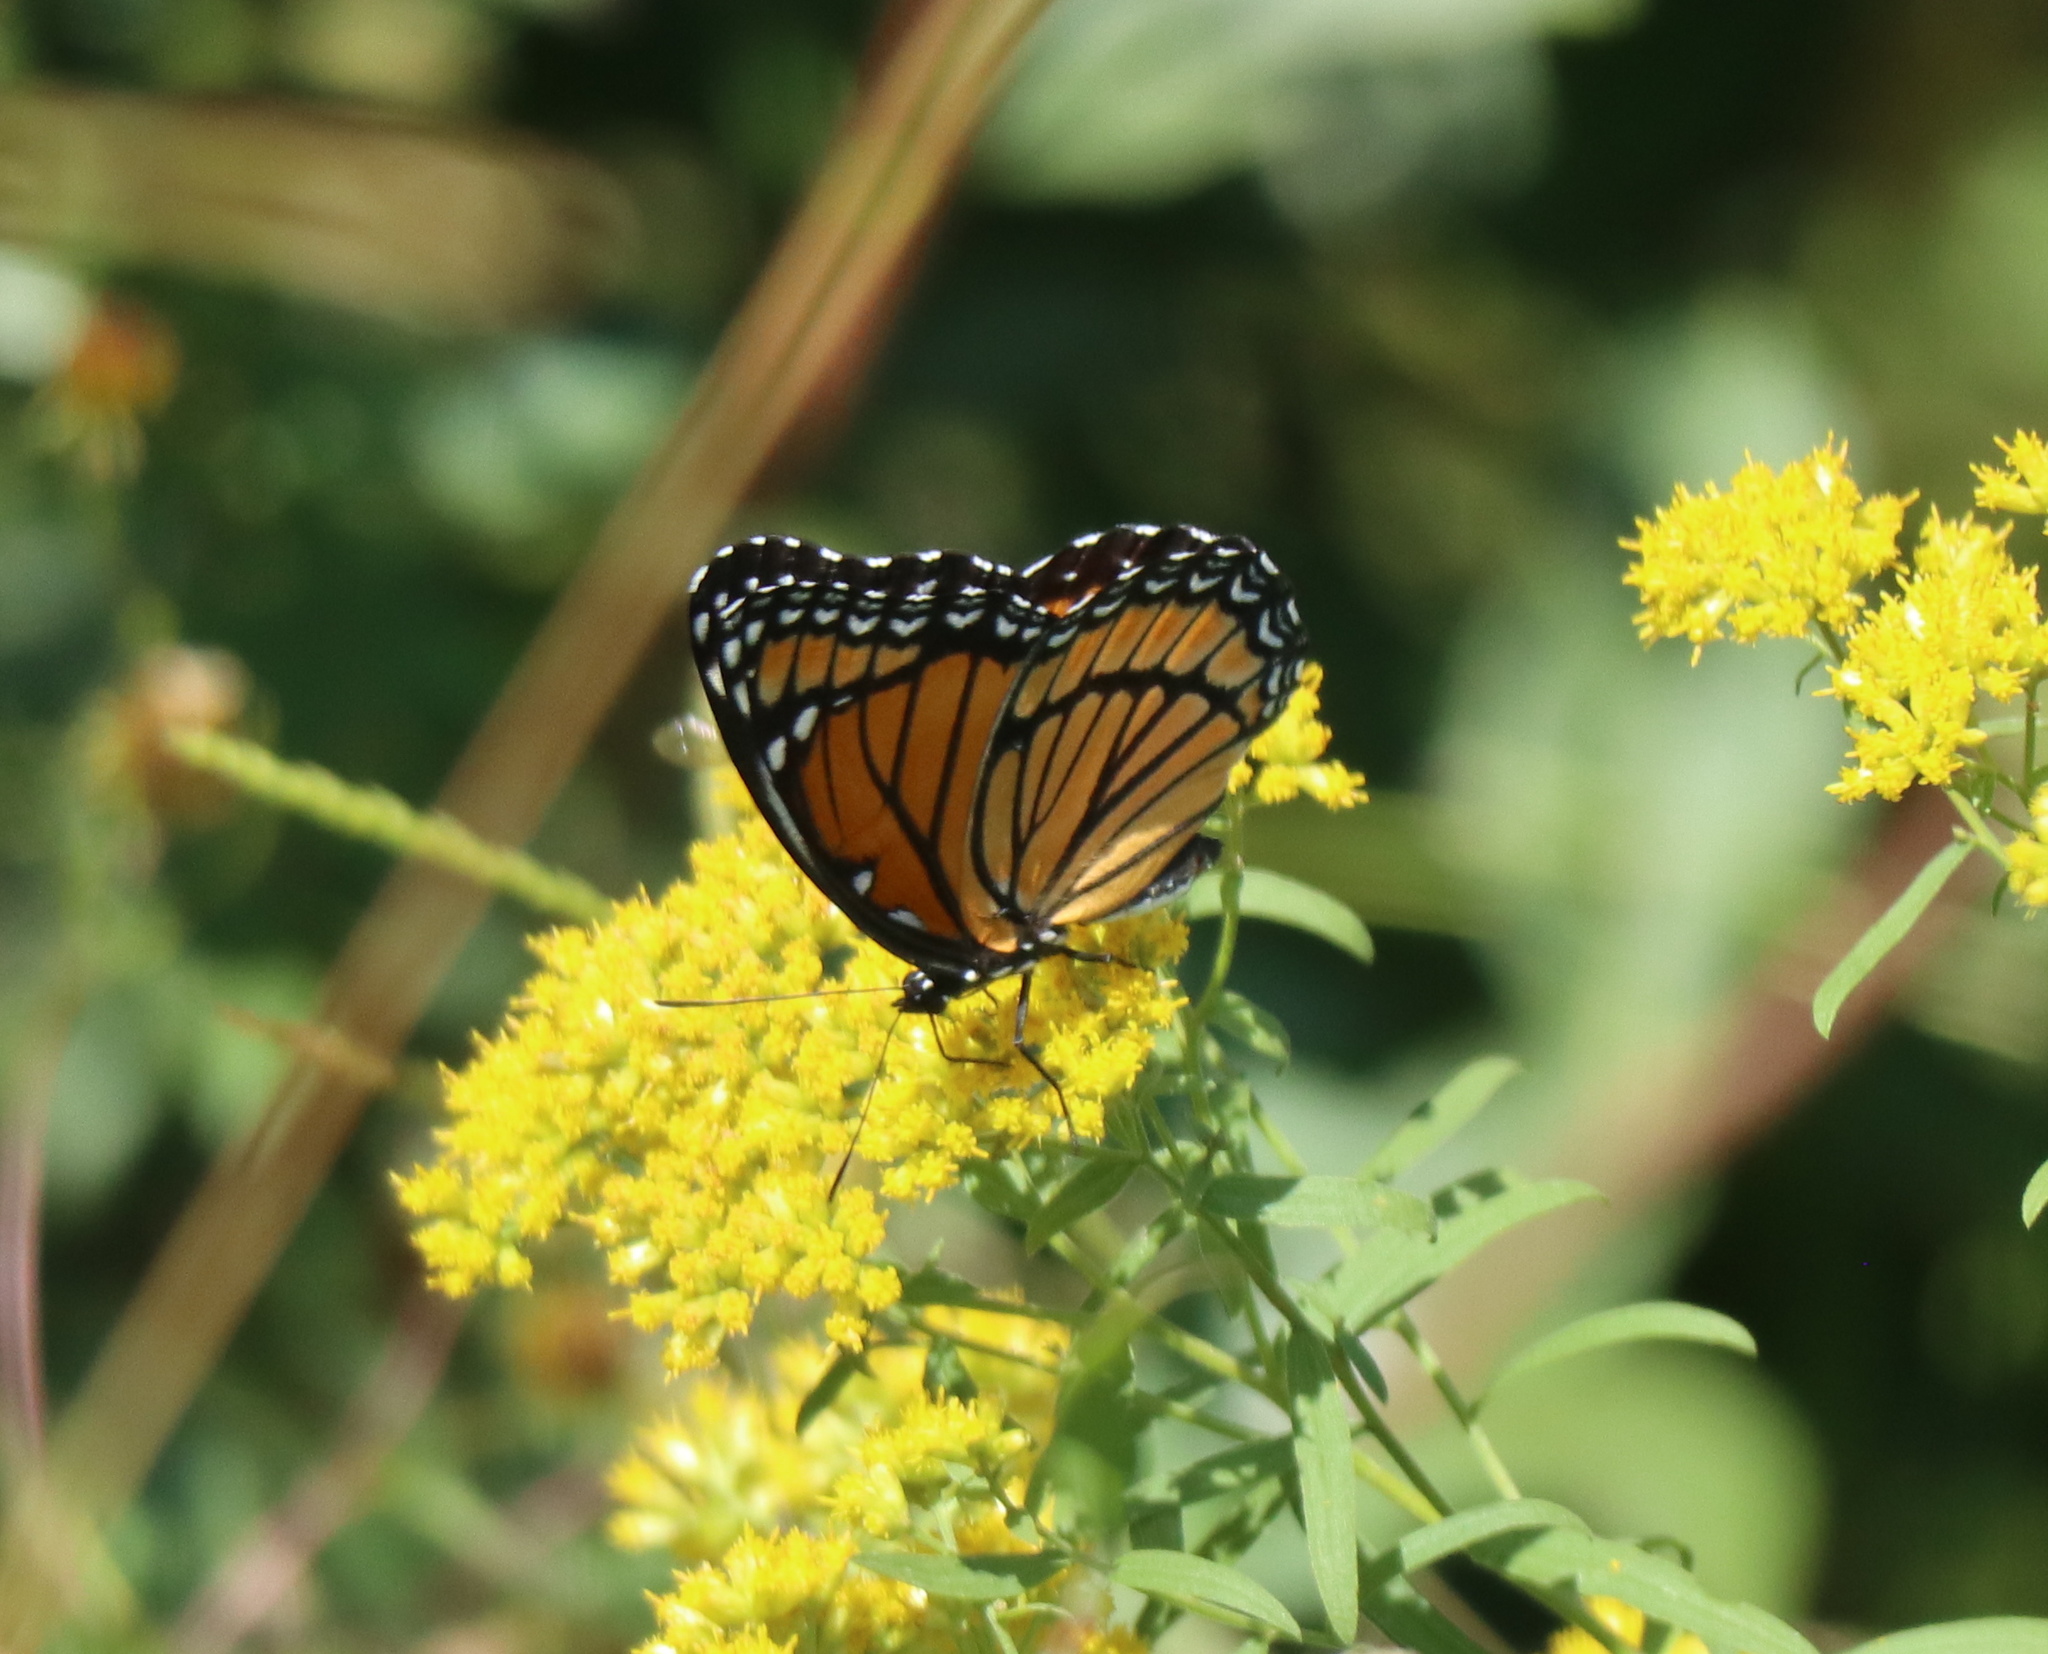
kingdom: Animalia
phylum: Arthropoda
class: Insecta
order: Lepidoptera
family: Nymphalidae
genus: Limenitis
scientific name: Limenitis archippus
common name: Viceroy
